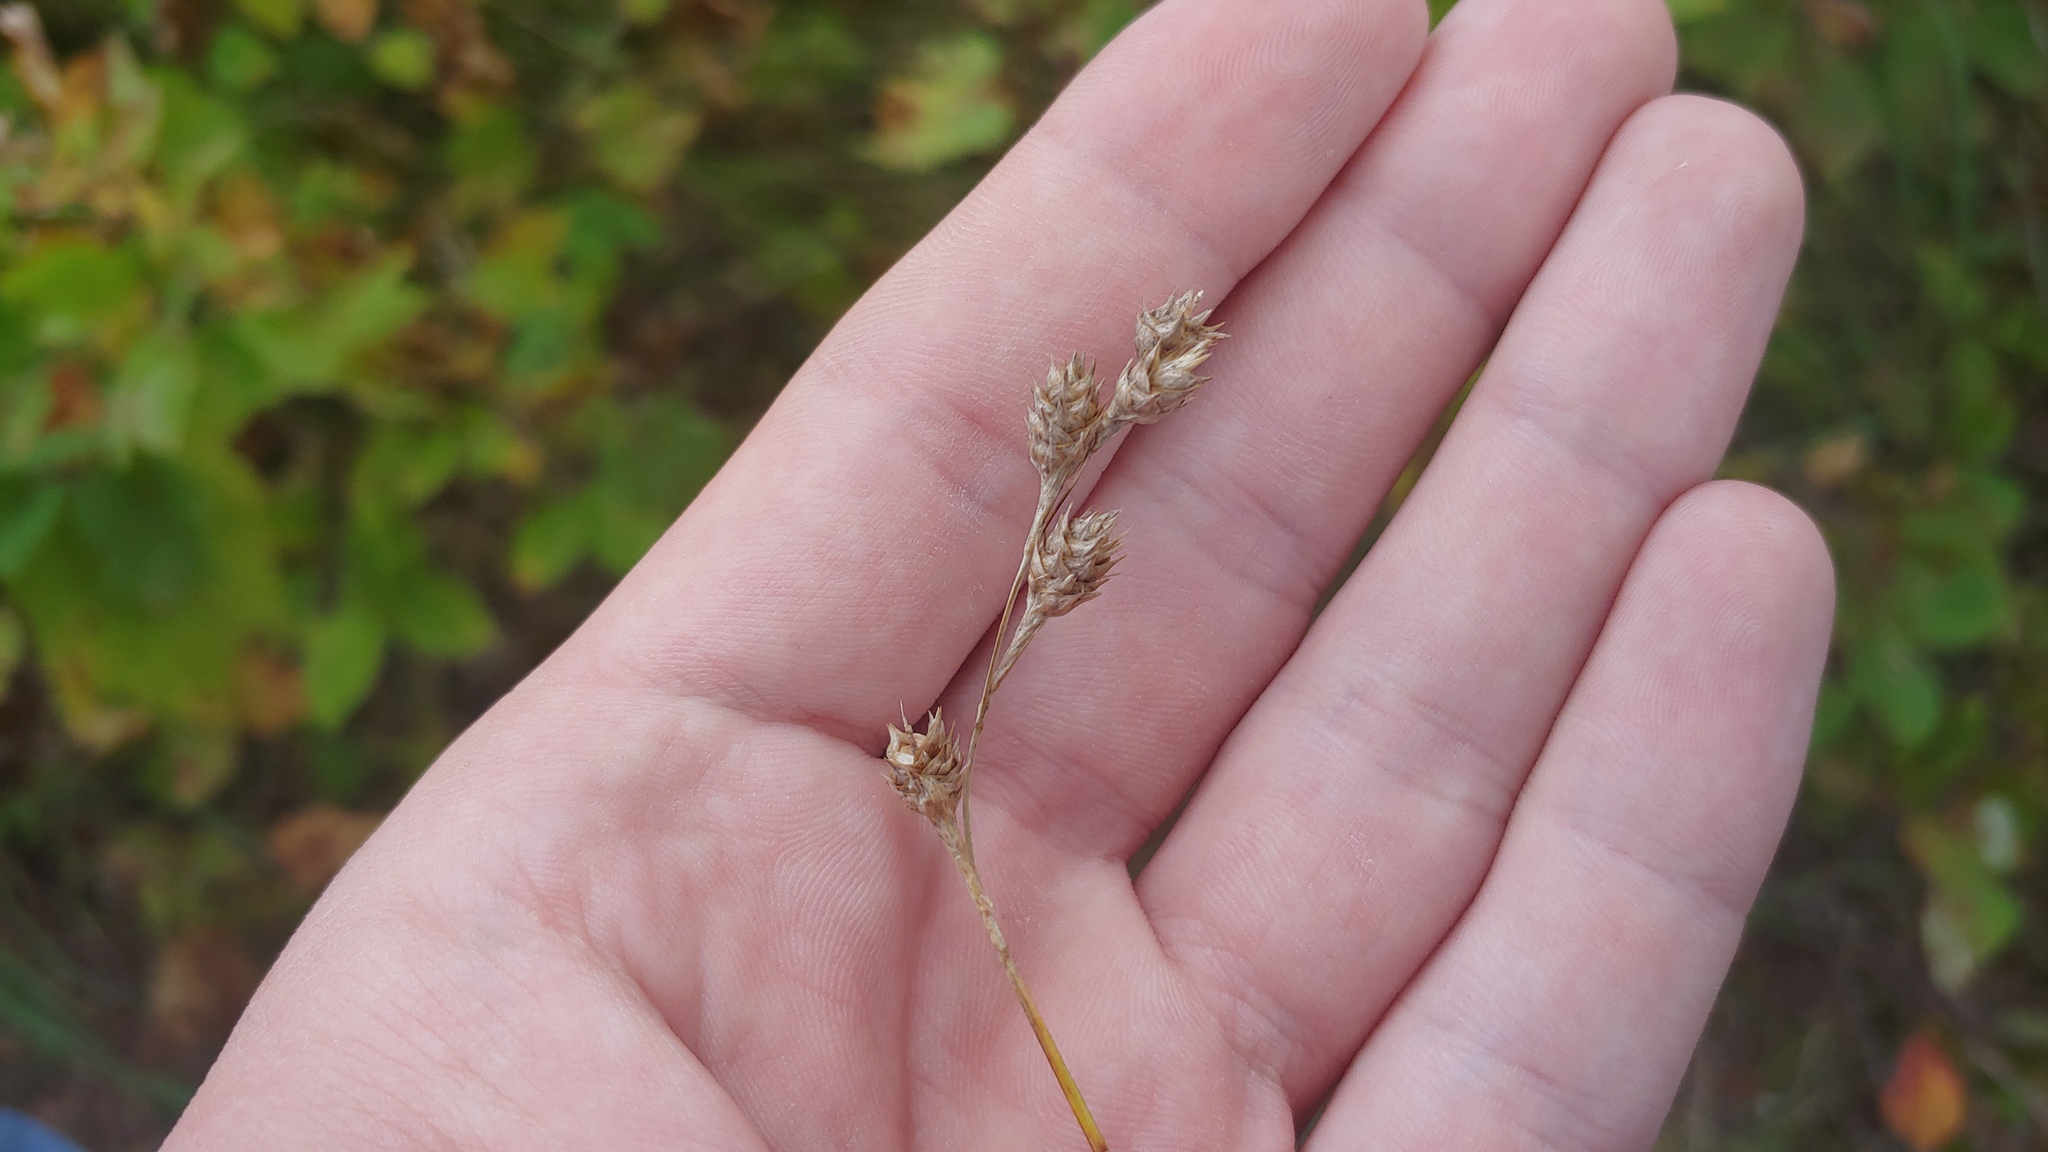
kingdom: Plantae
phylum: Tracheophyta
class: Liliopsida
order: Poales
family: Cyperaceae
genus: Carex
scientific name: Carex brevior
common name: Brevior sedge
